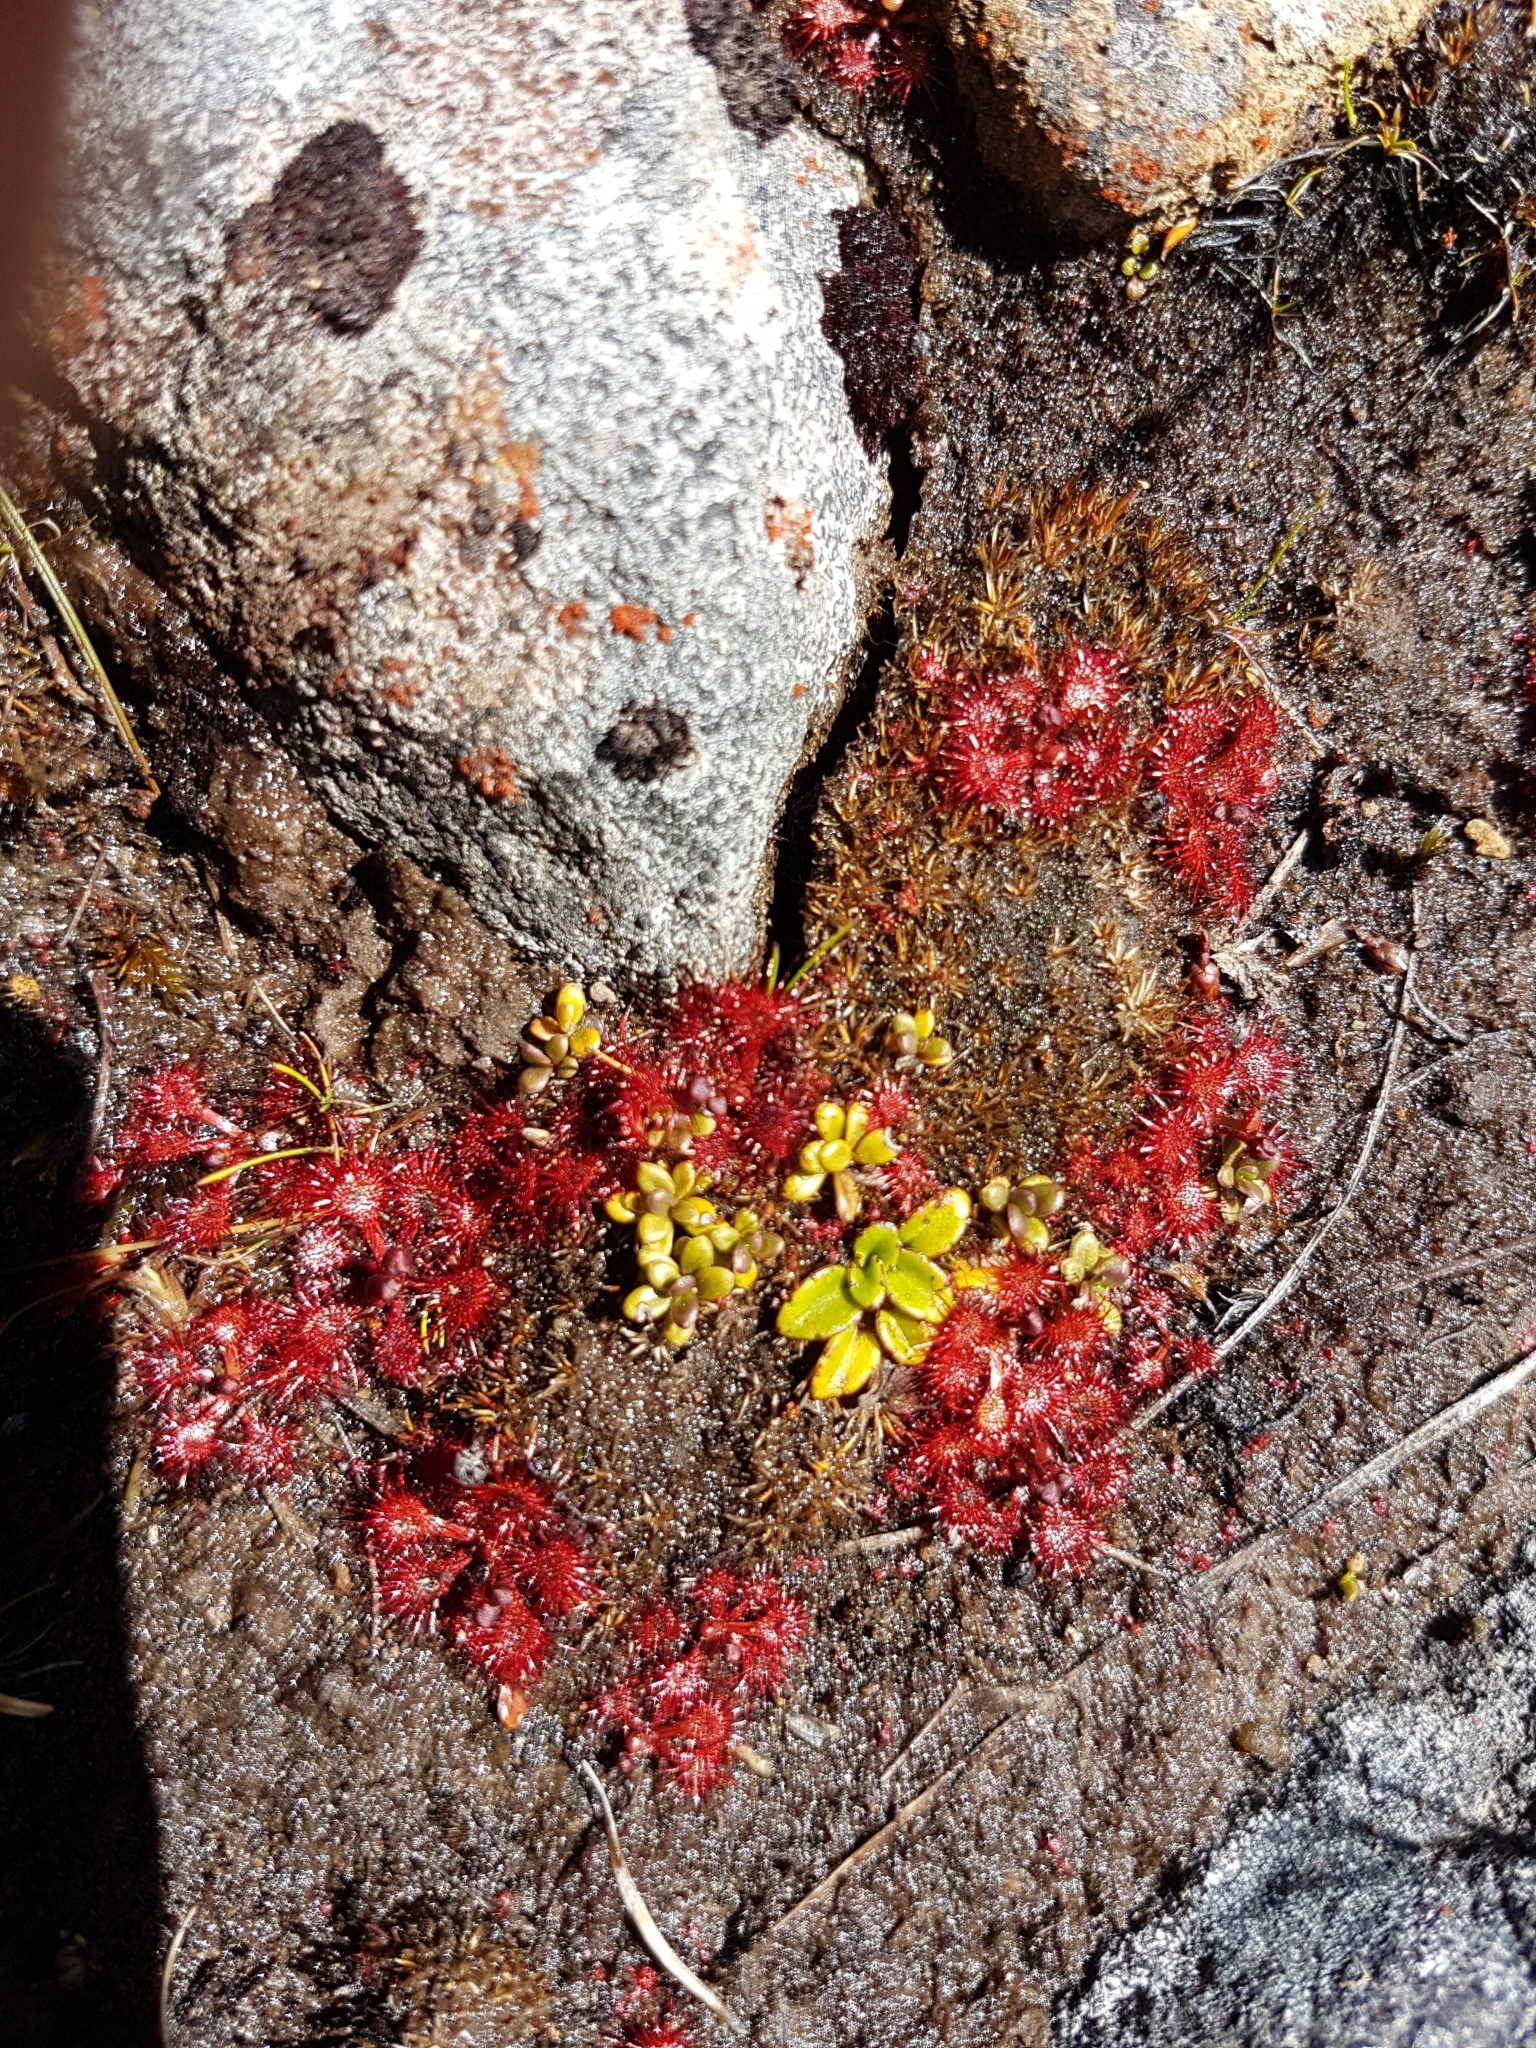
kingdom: Plantae
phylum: Tracheophyta
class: Magnoliopsida
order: Caryophyllales
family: Droseraceae
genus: Drosera
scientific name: Drosera spatulata
